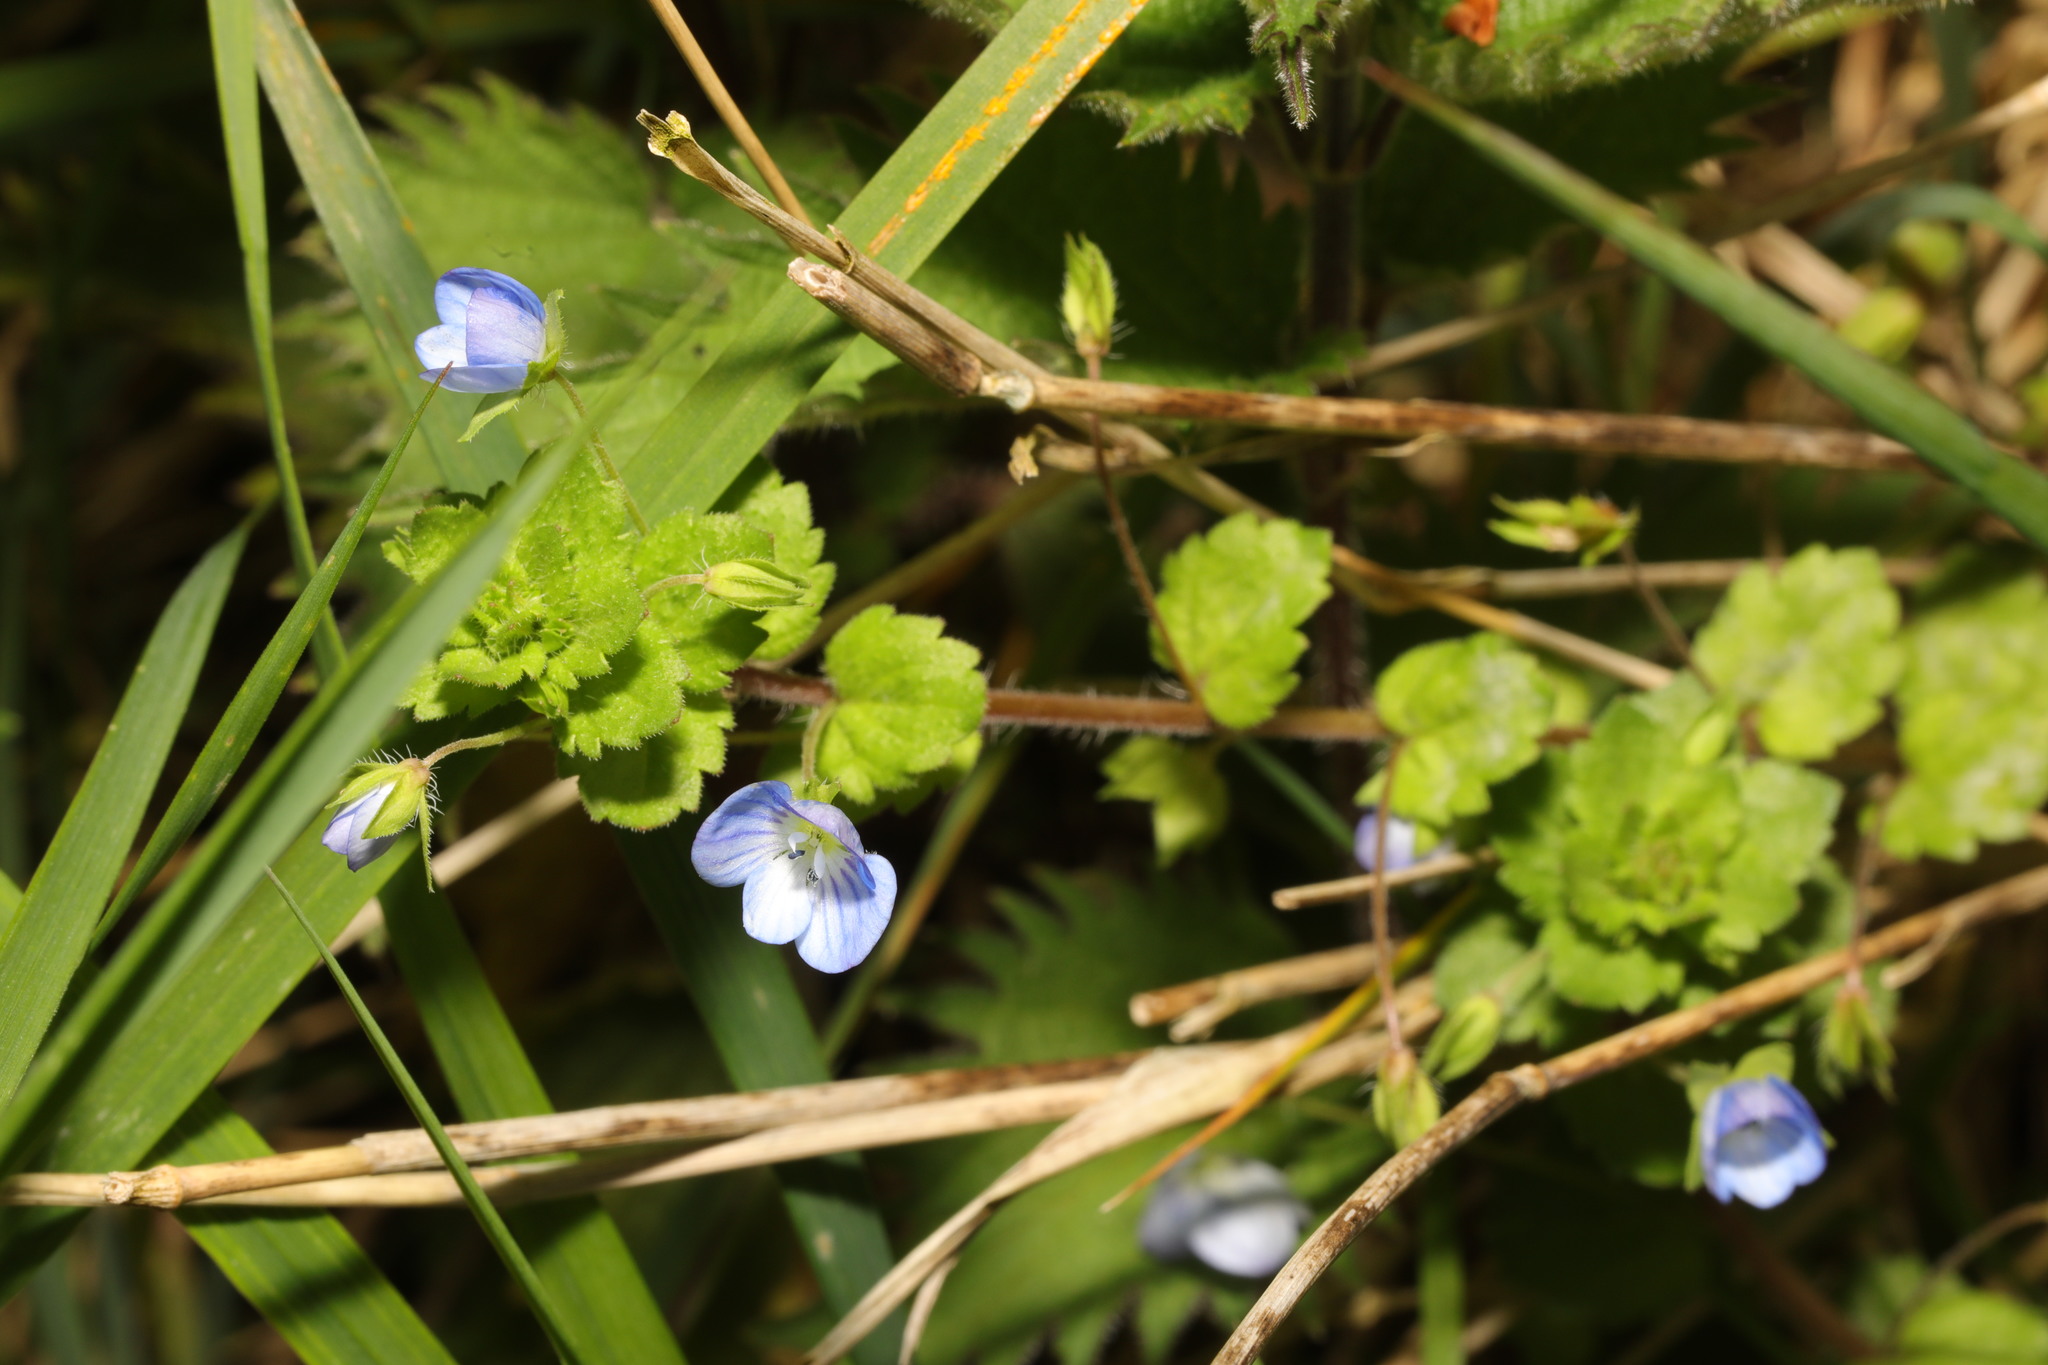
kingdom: Plantae
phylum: Tracheophyta
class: Magnoliopsida
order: Lamiales
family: Plantaginaceae
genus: Veronica
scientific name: Veronica persica
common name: Common field-speedwell
